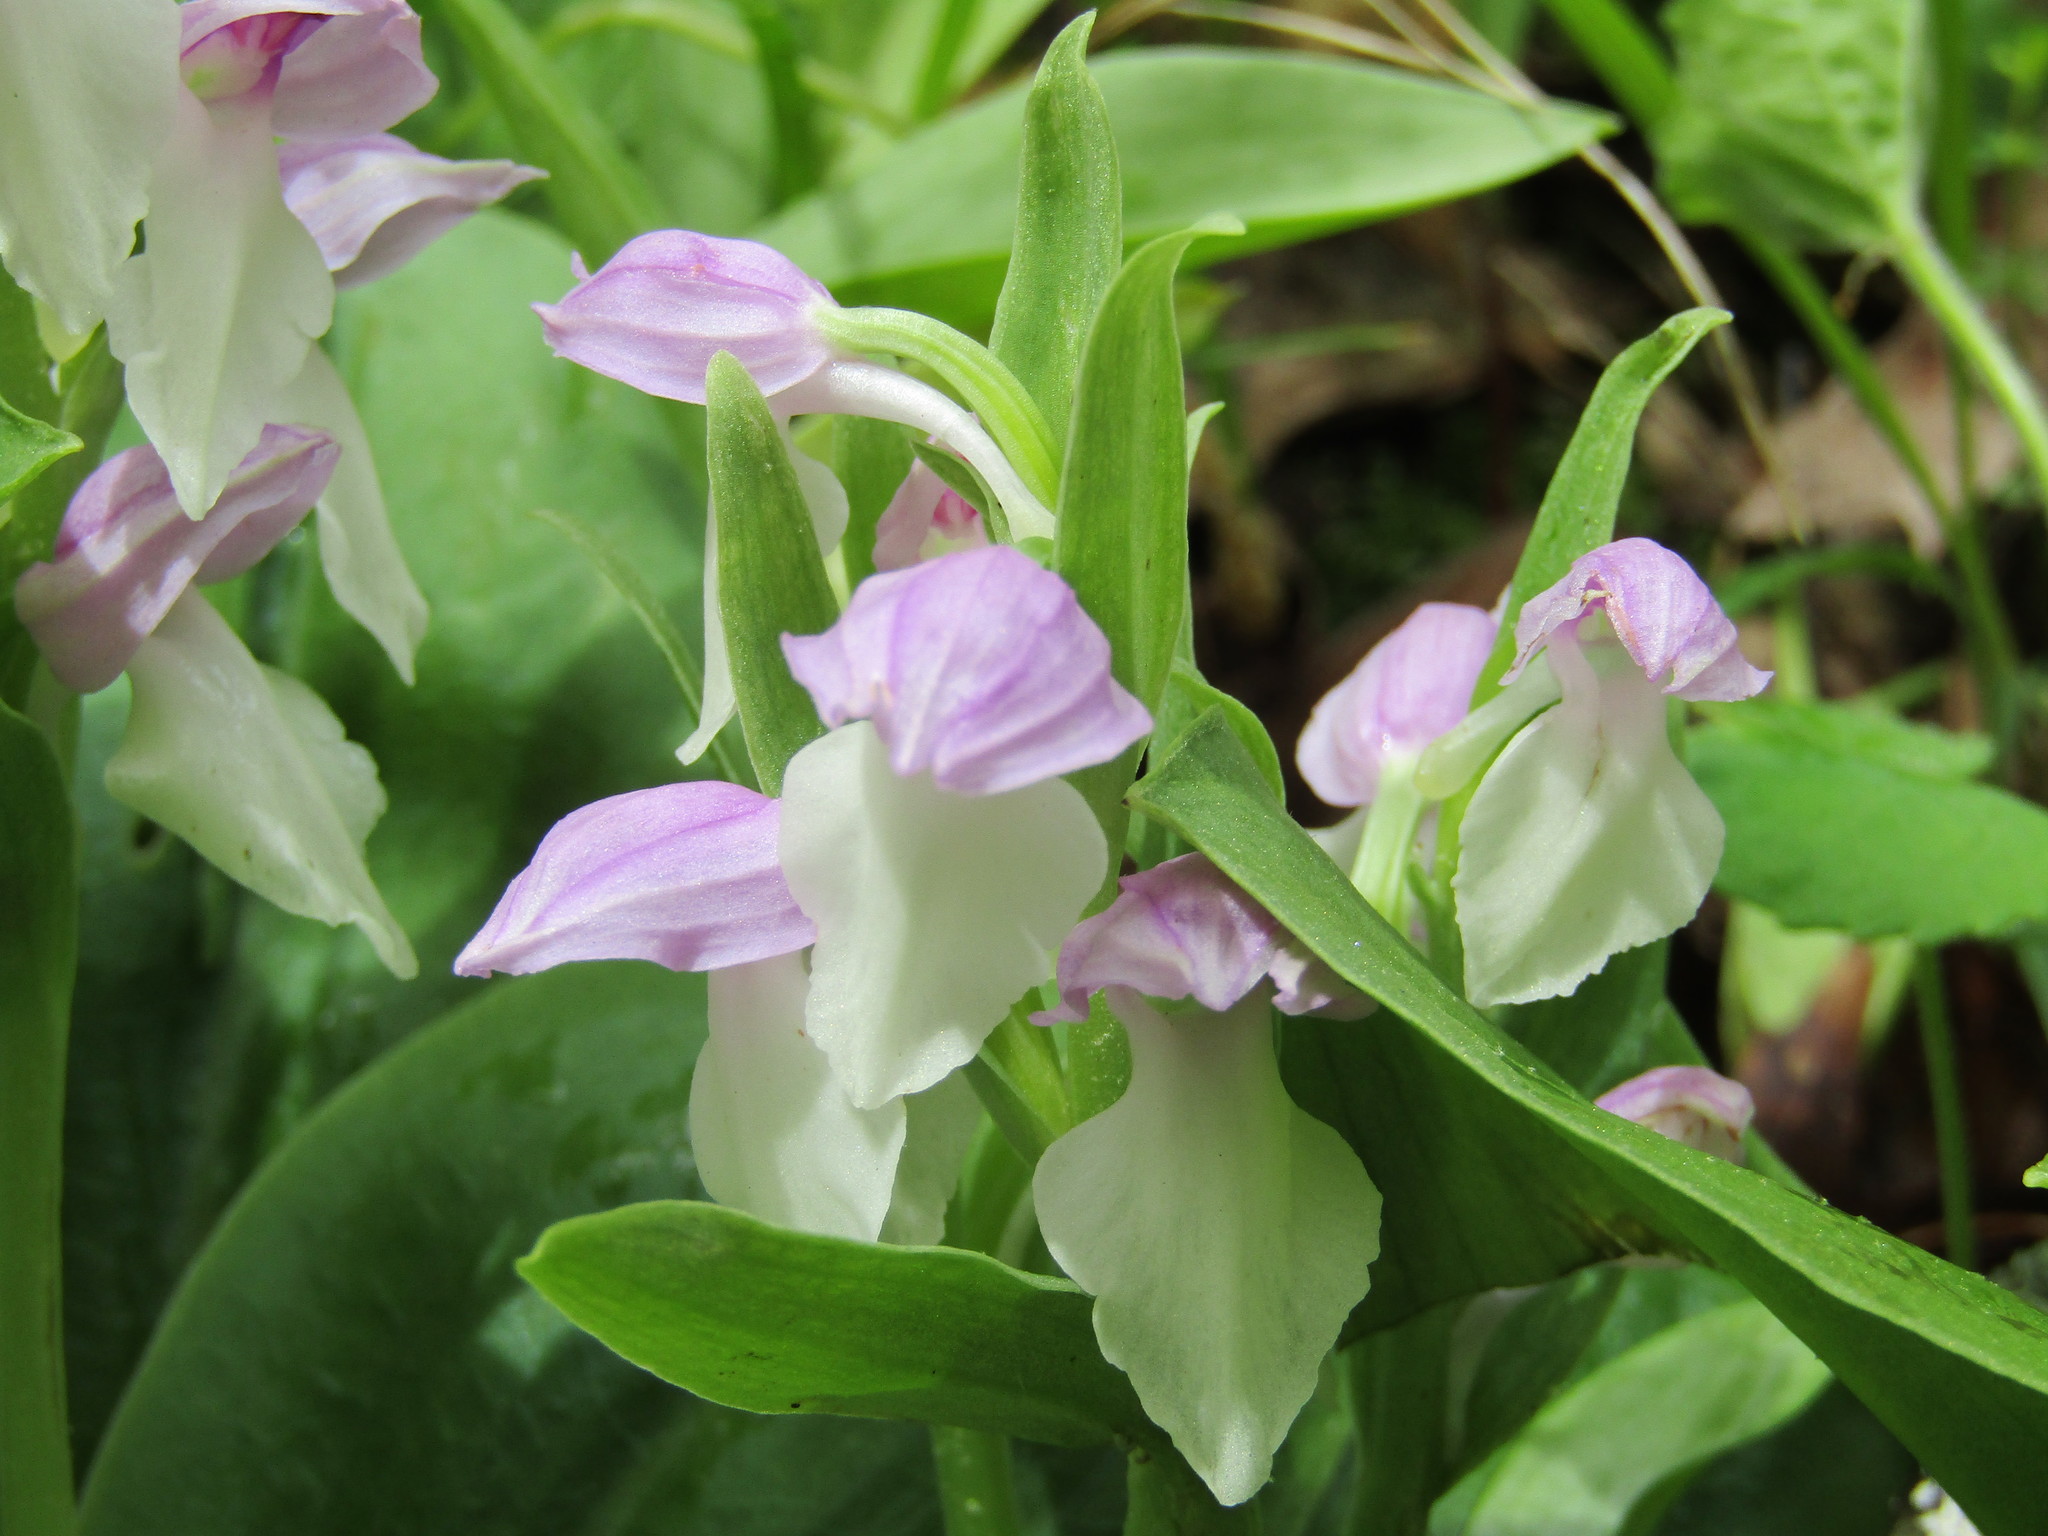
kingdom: Plantae
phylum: Tracheophyta
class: Liliopsida
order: Asparagales
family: Orchidaceae
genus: Galearis
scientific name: Galearis spectabilis
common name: Purple-hooded orchis
